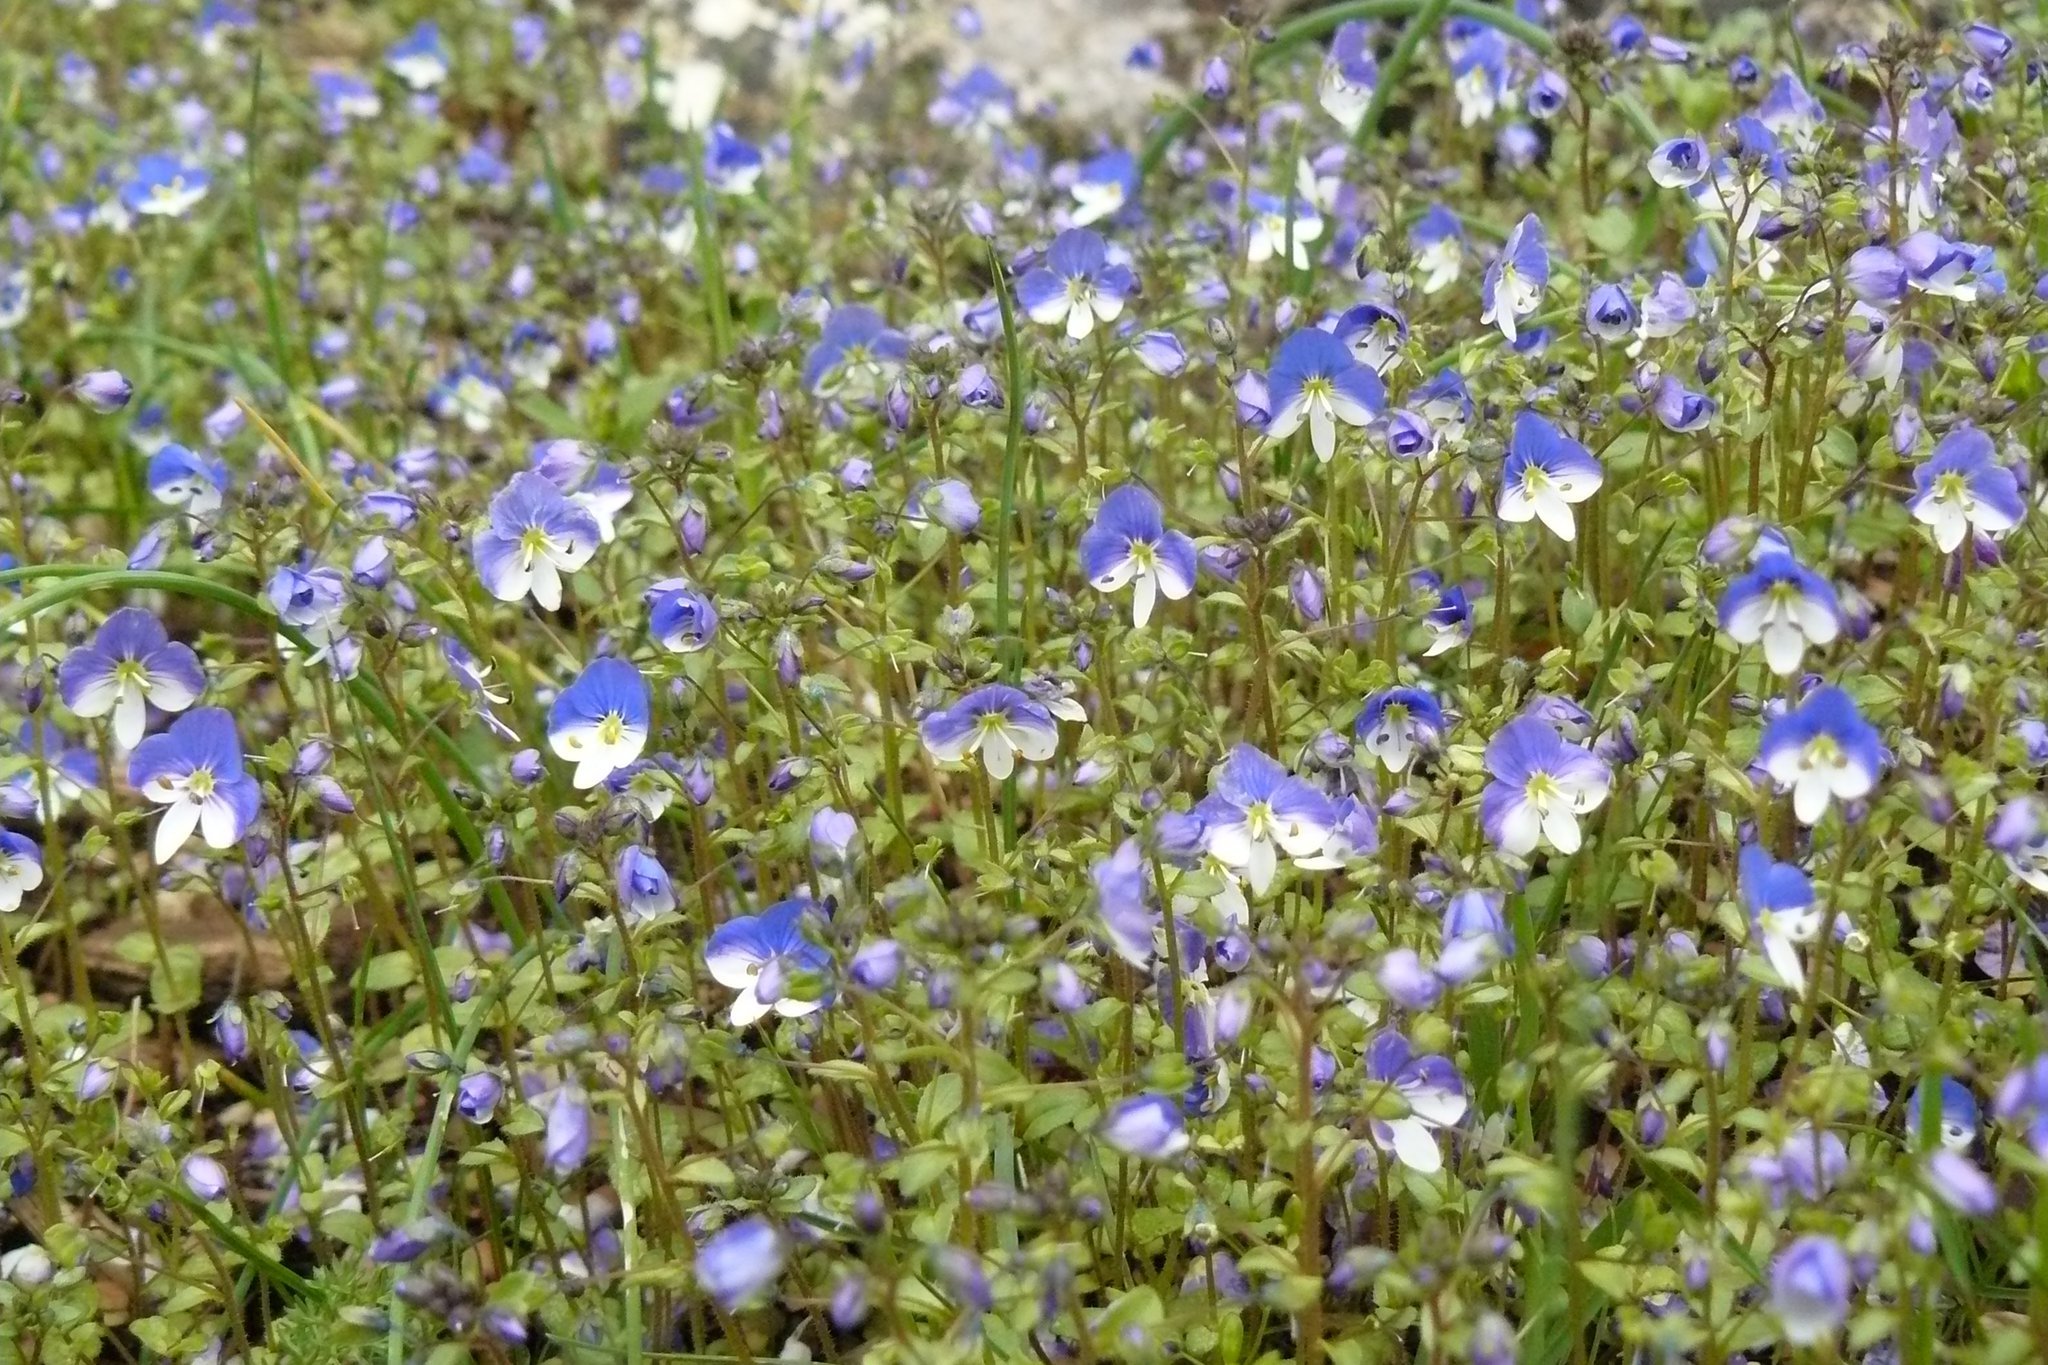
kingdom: Plantae
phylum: Tracheophyta
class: Magnoliopsida
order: Lamiales
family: Plantaginaceae
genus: Veronica
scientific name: Veronica syriaca
